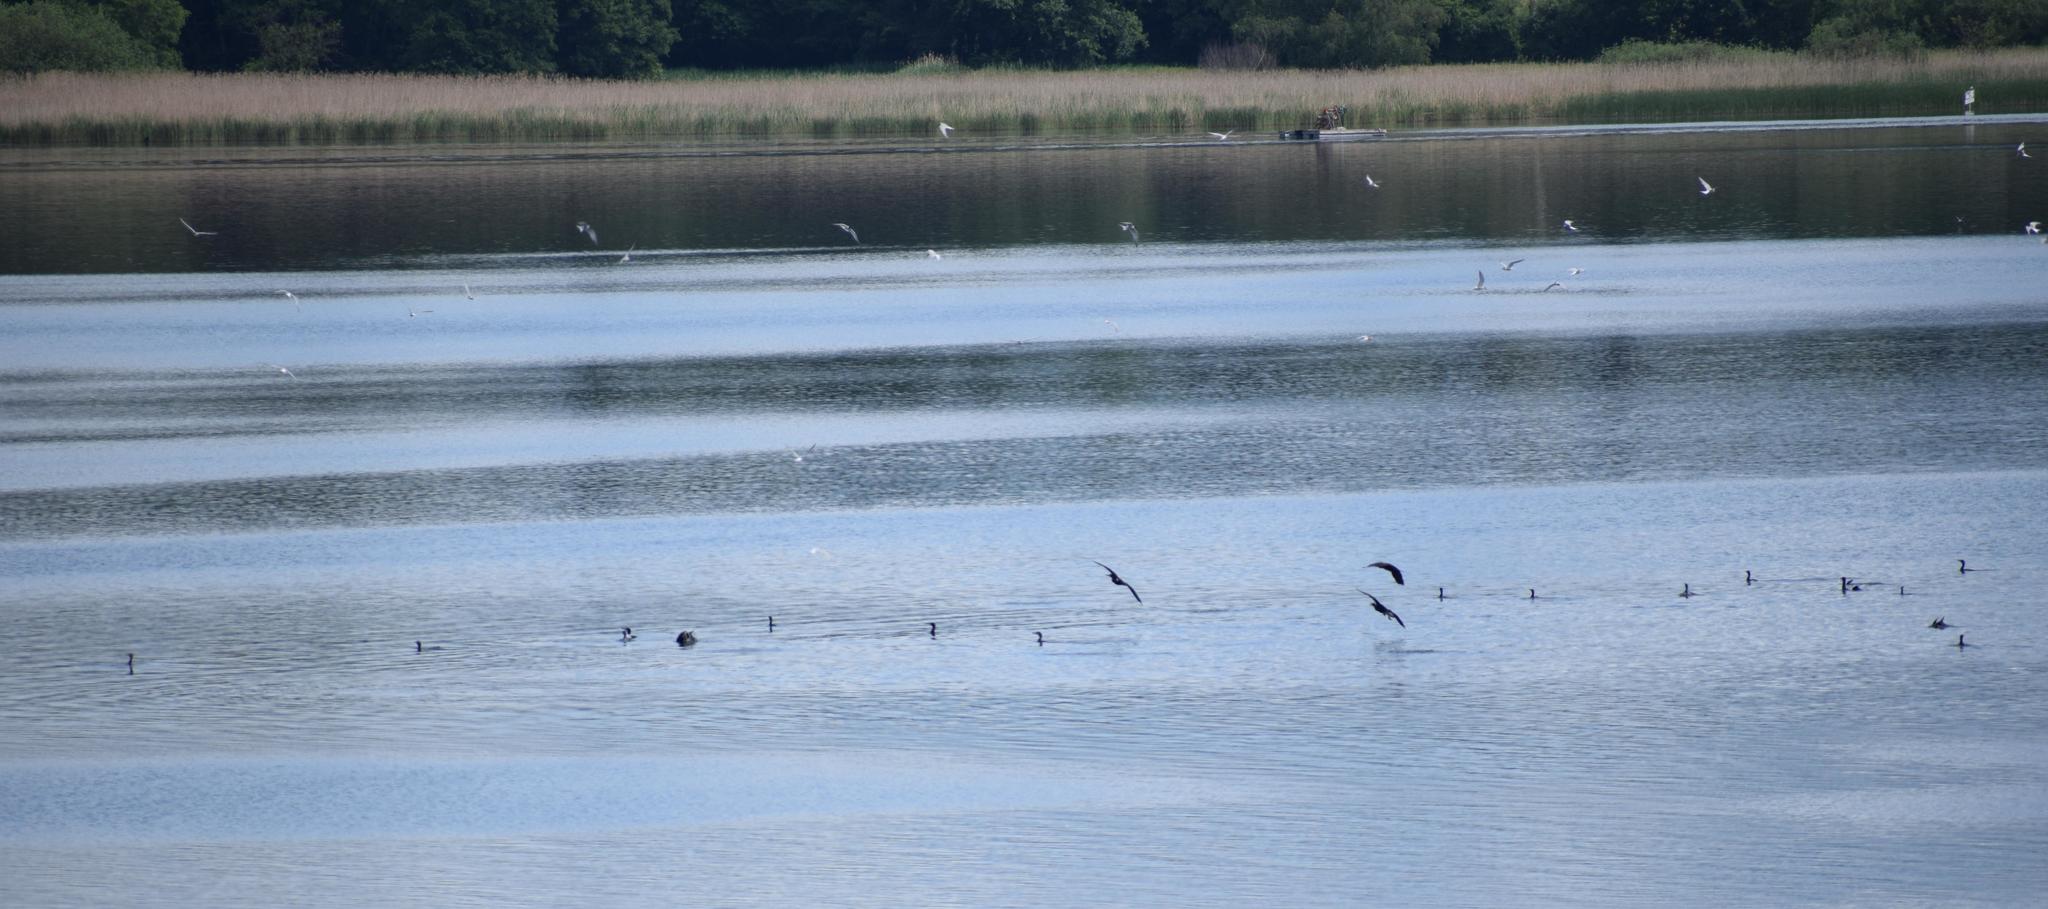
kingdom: Animalia
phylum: Chordata
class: Aves
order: Suliformes
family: Phalacrocoracidae
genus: Phalacrocorax
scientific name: Phalacrocorax carbo
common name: Great cormorant
